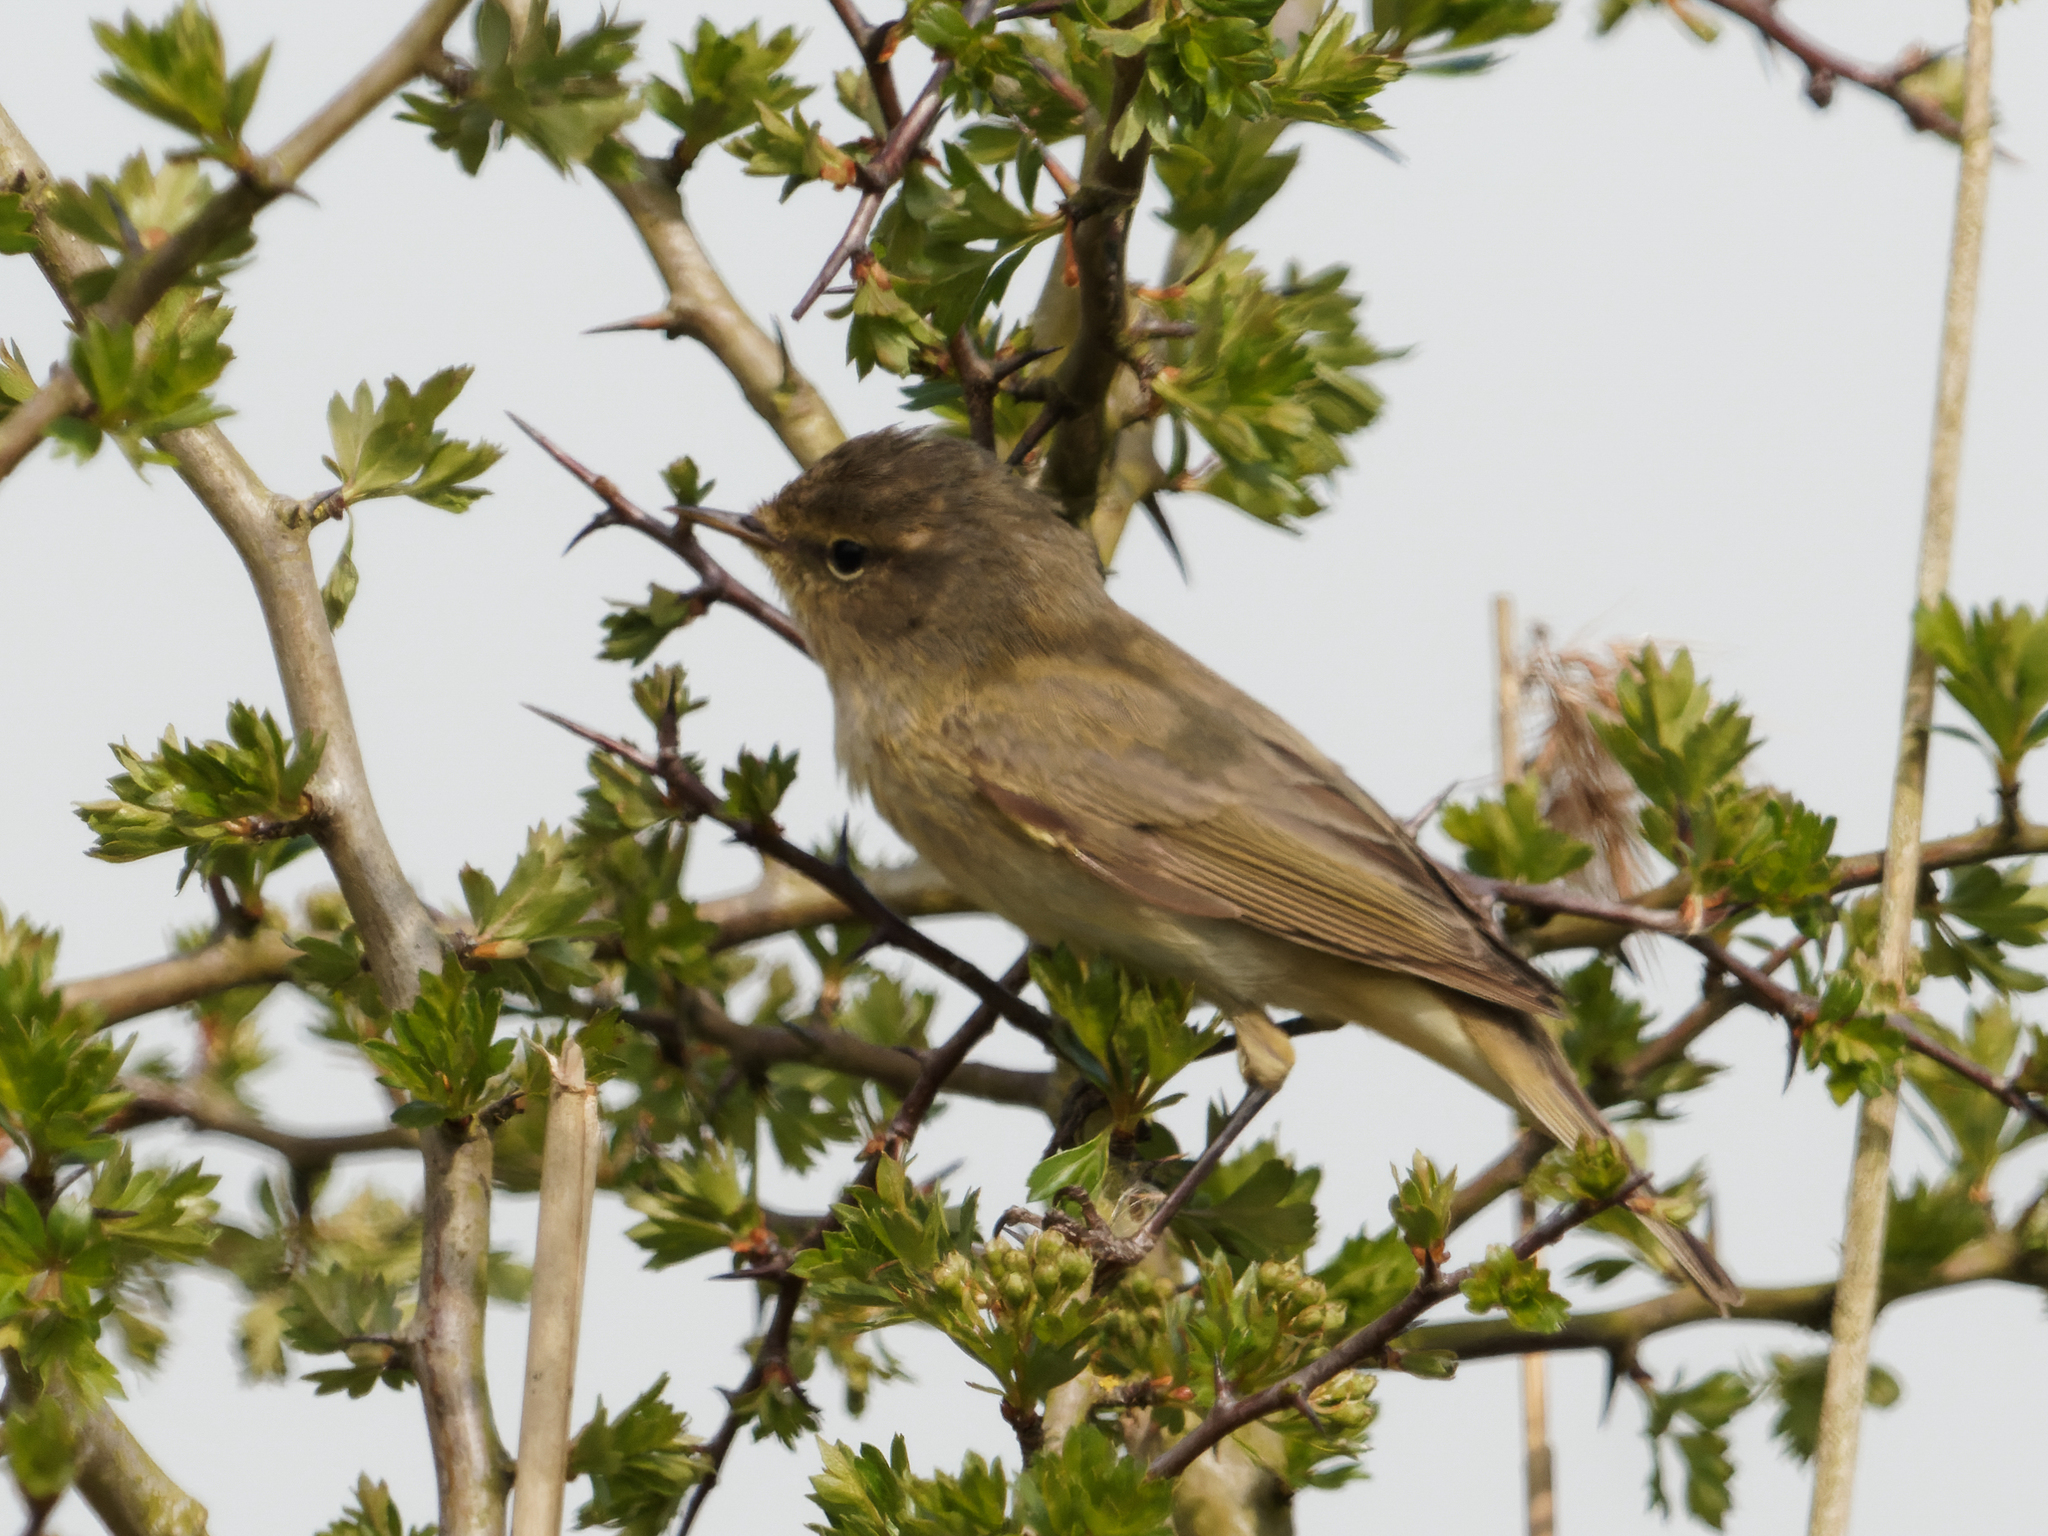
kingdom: Animalia
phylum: Chordata
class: Aves
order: Passeriformes
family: Phylloscopidae
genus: Phylloscopus
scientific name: Phylloscopus collybita
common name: Common chiffchaff
